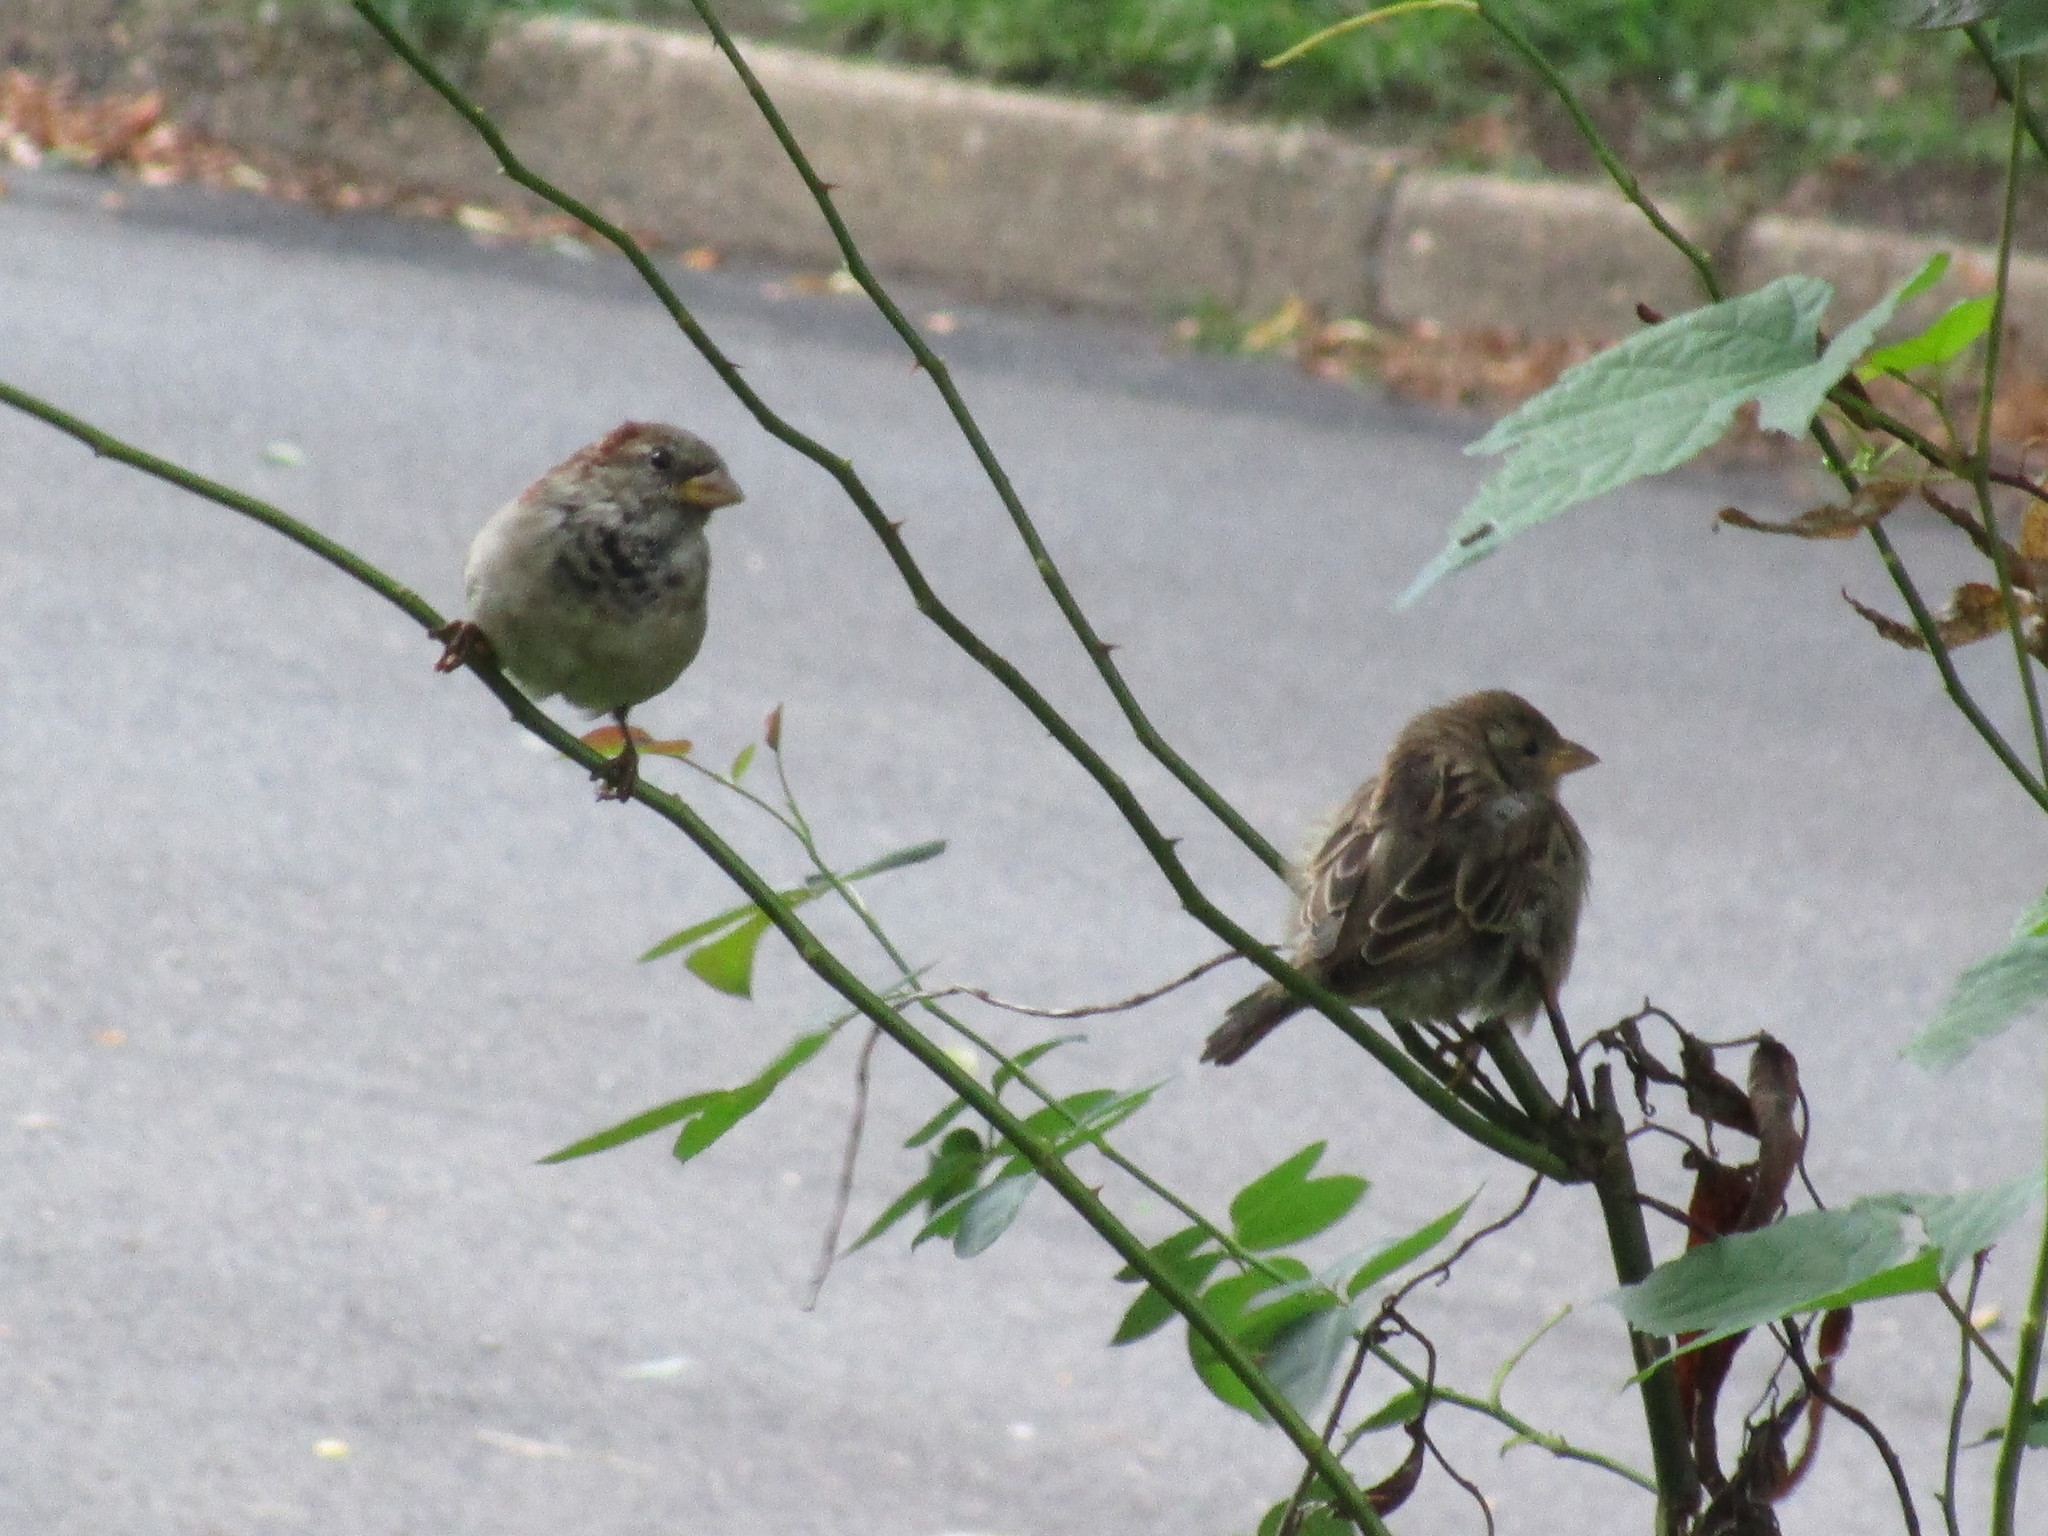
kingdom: Animalia
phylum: Chordata
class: Aves
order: Passeriformes
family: Passeridae
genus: Passer
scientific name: Passer domesticus
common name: House sparrow
